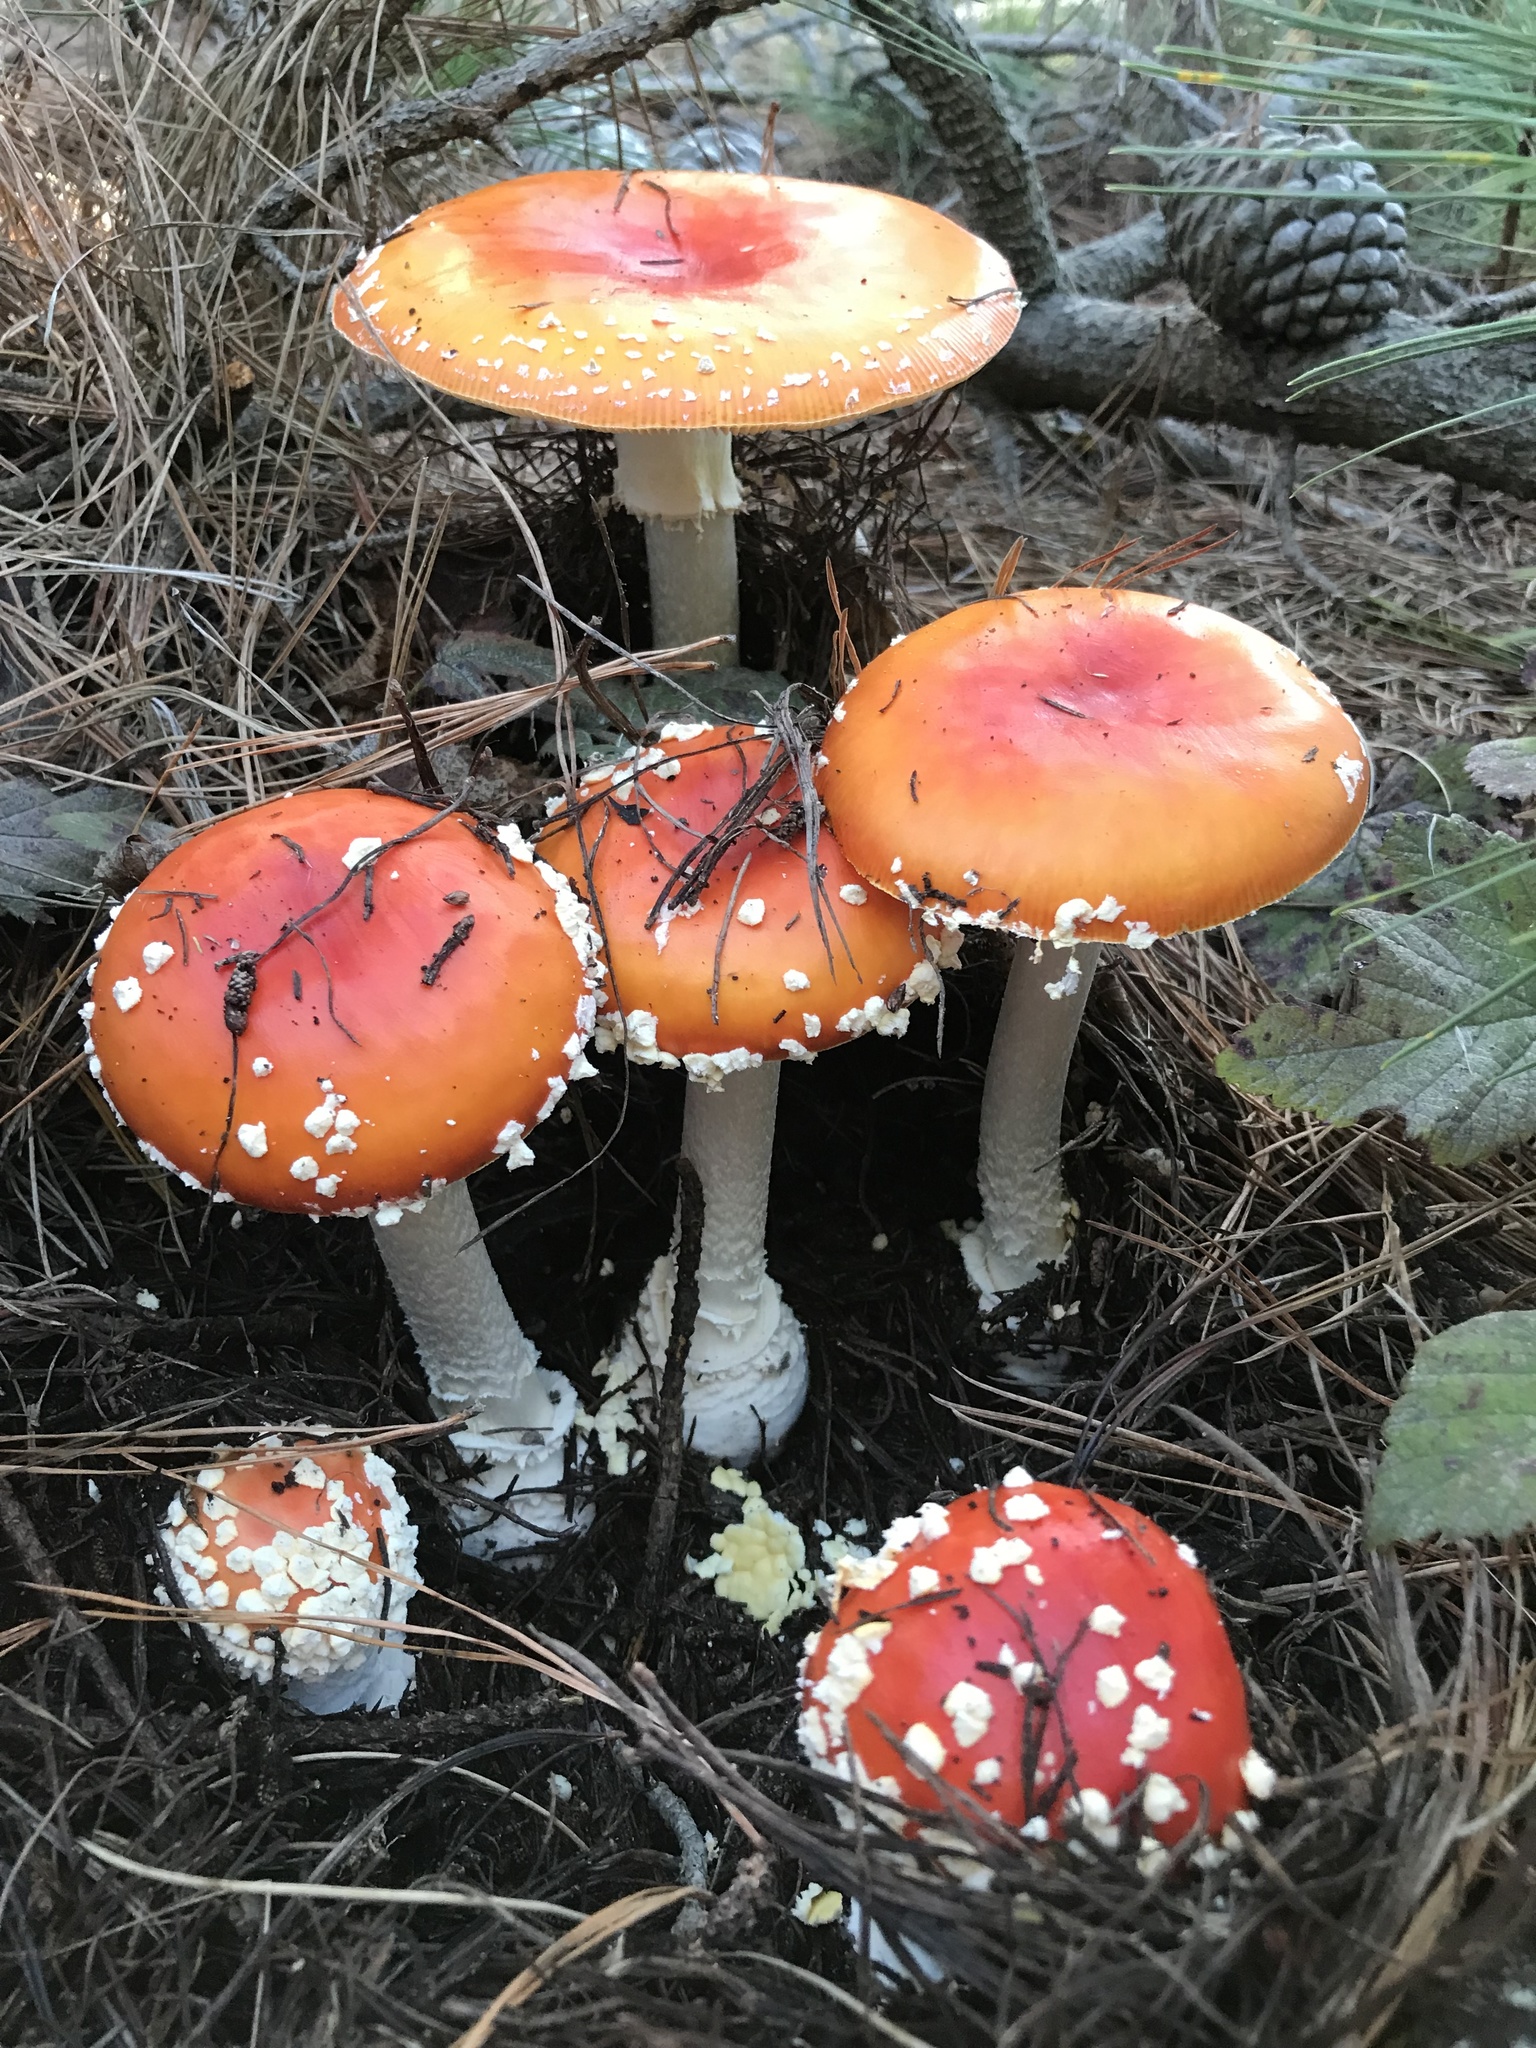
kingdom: Fungi
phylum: Basidiomycota
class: Agaricomycetes
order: Agaricales
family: Amanitaceae
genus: Amanita
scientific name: Amanita muscaria
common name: Fly agaric
